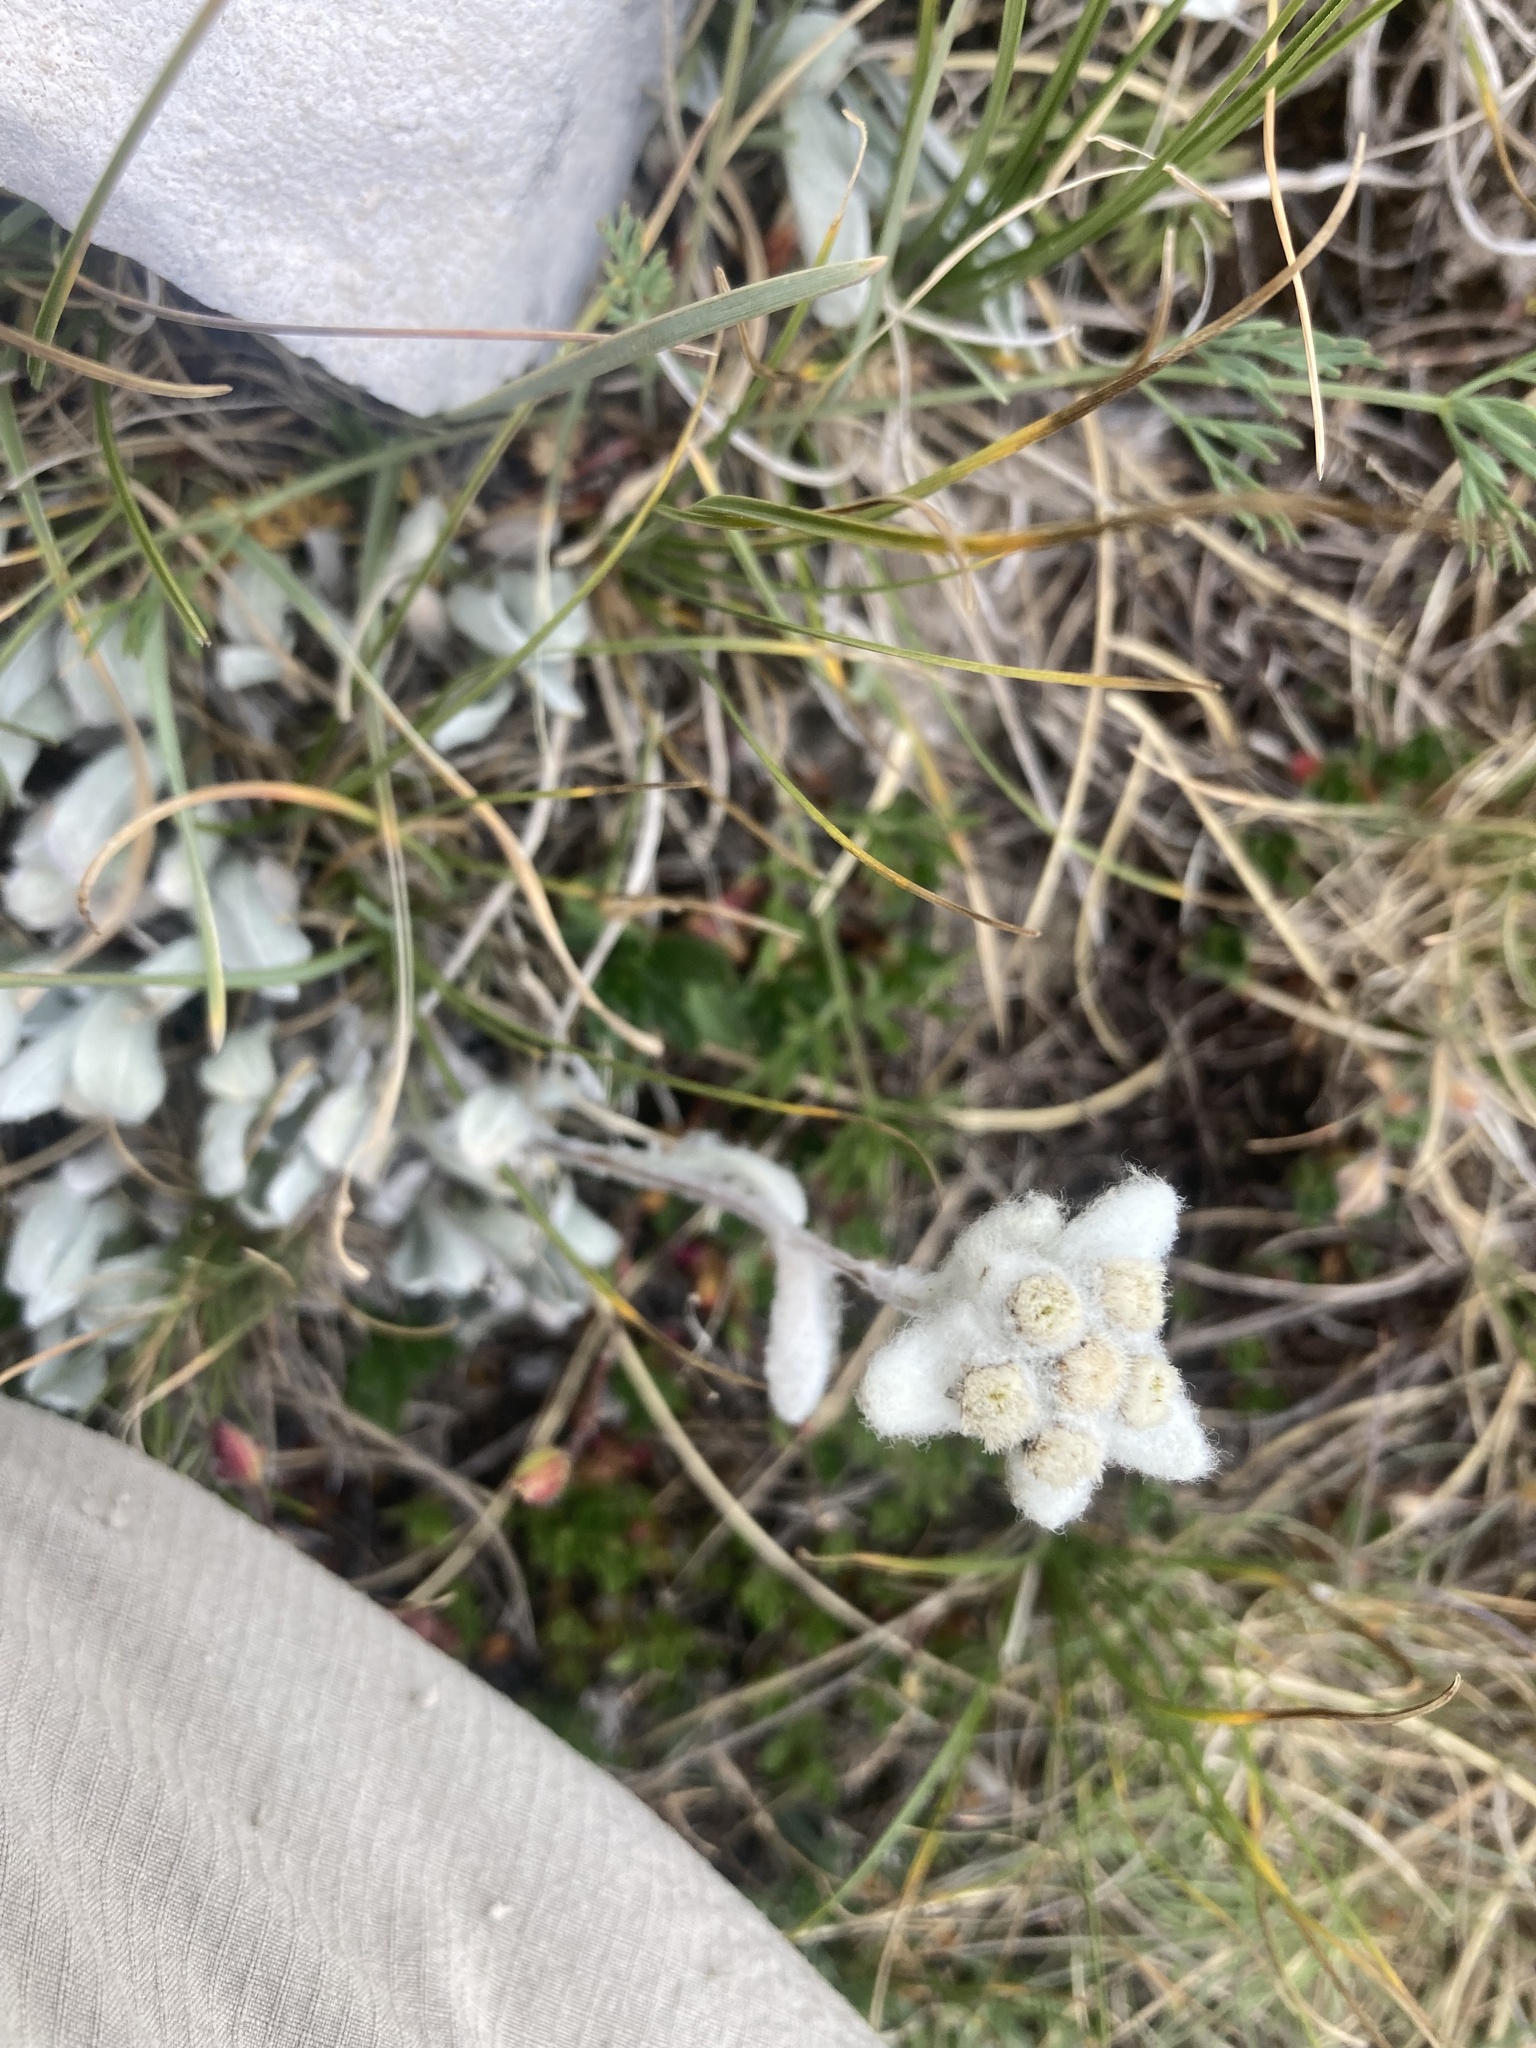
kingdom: Plantae
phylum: Tracheophyta
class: Magnoliopsida
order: Asterales
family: Asteraceae
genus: Leontopodium
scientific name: Leontopodium nivale
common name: Edelweiss
